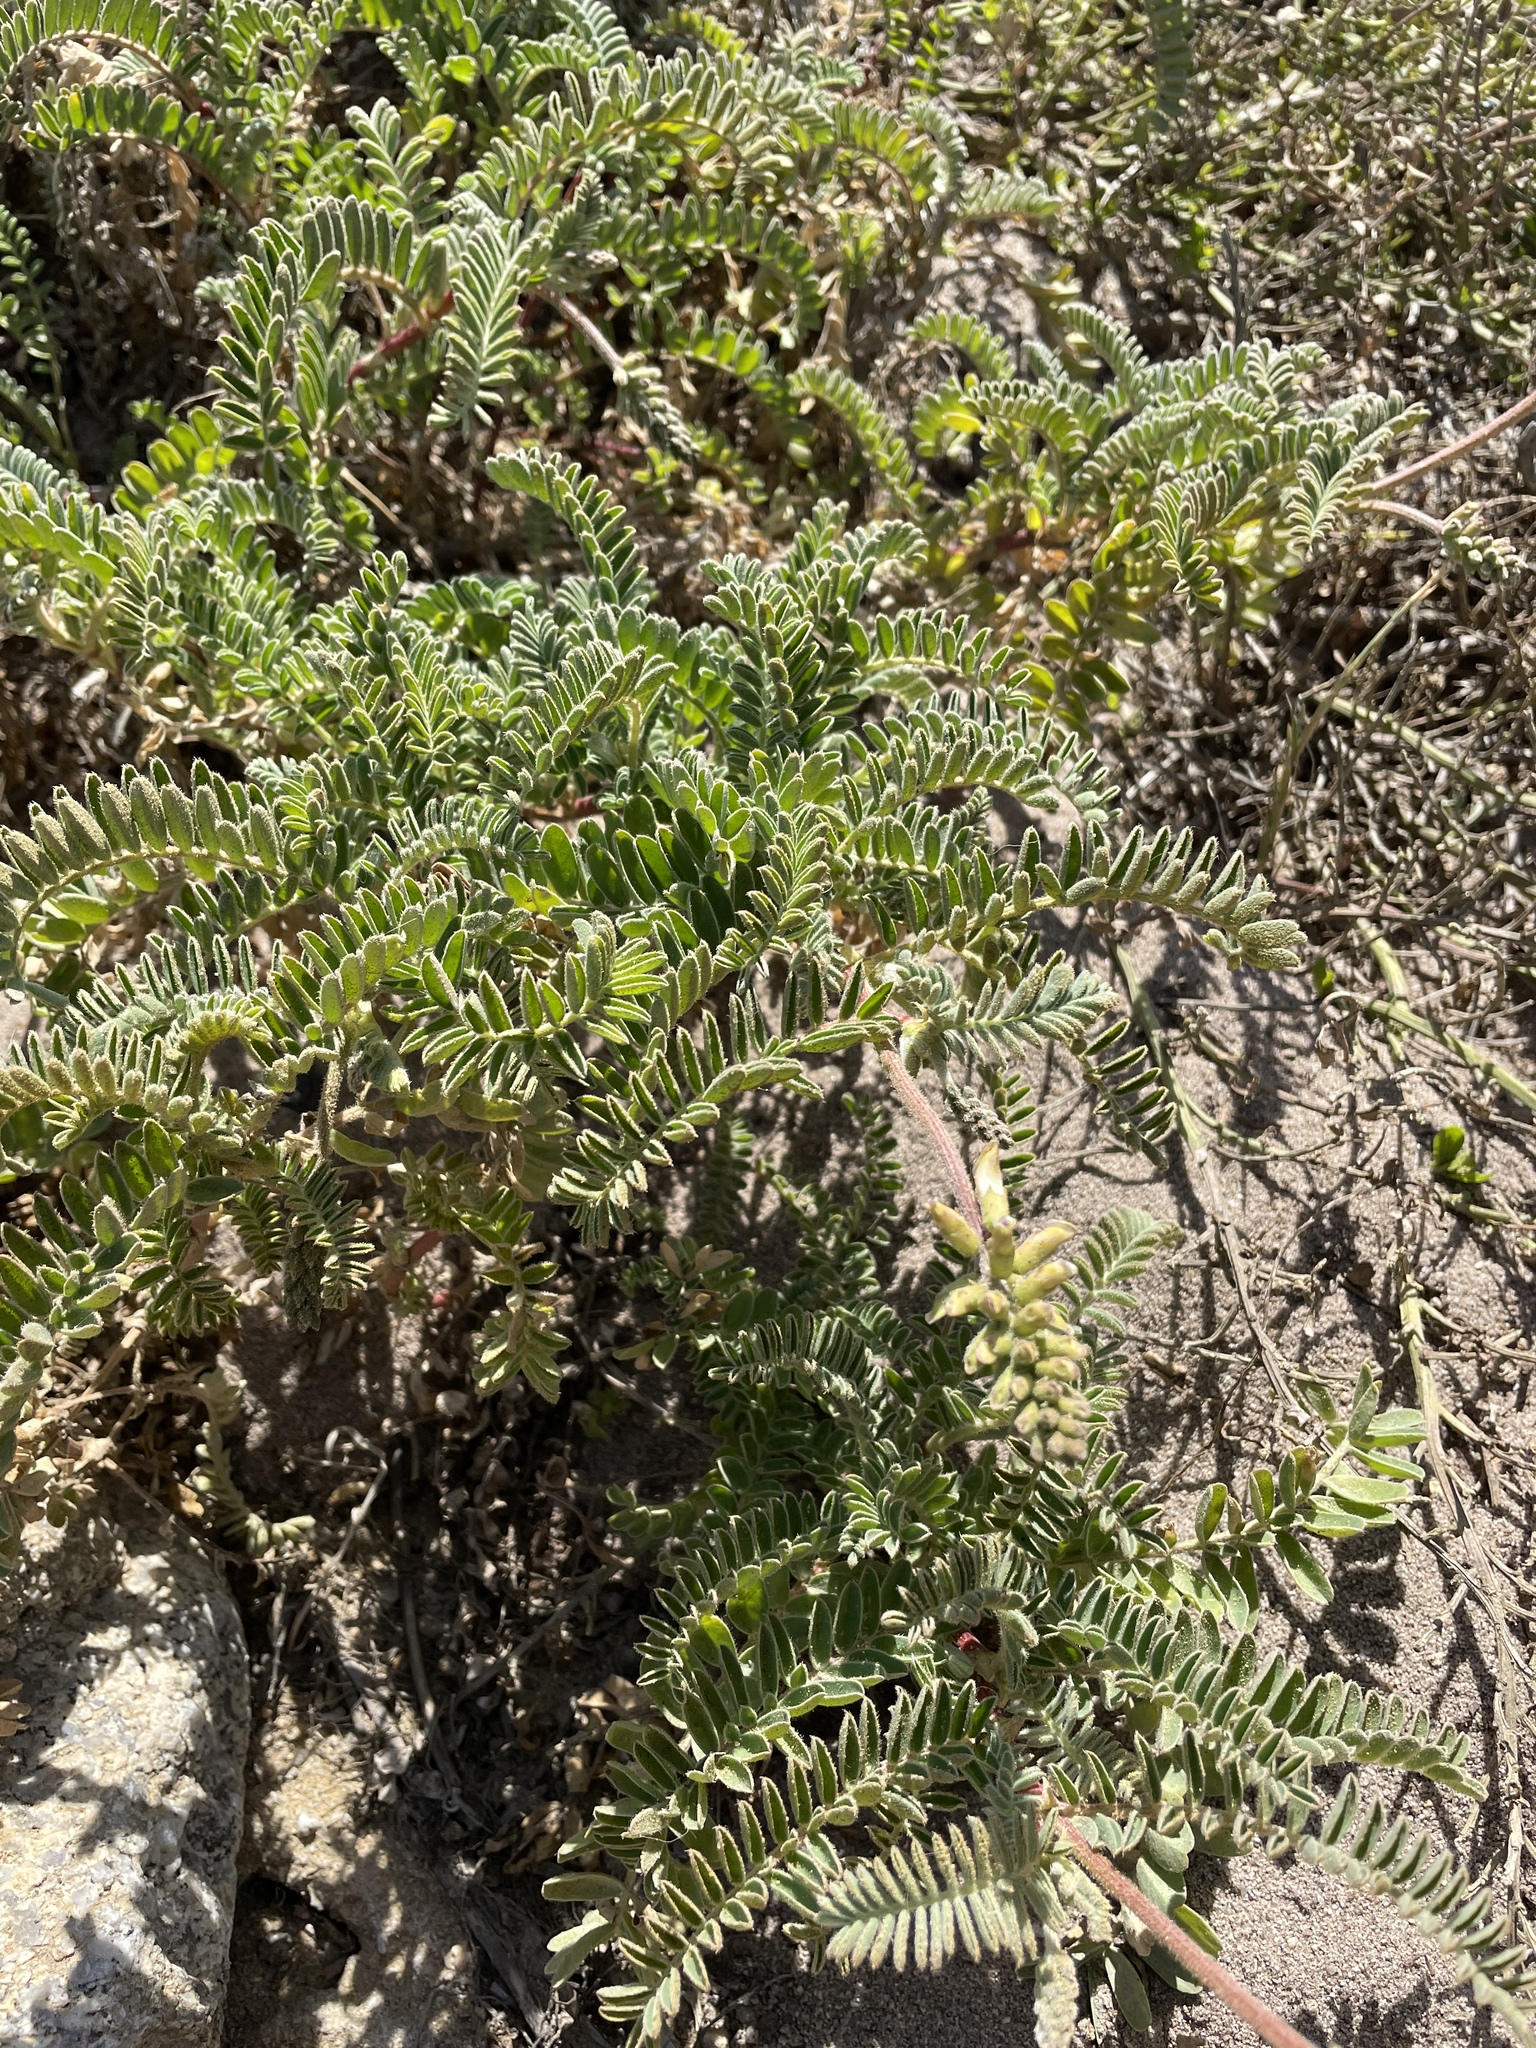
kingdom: Plantae
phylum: Tracheophyta
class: Magnoliopsida
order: Fabales
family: Fabaceae
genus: Astragalus
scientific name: Astragalus nuttallii
